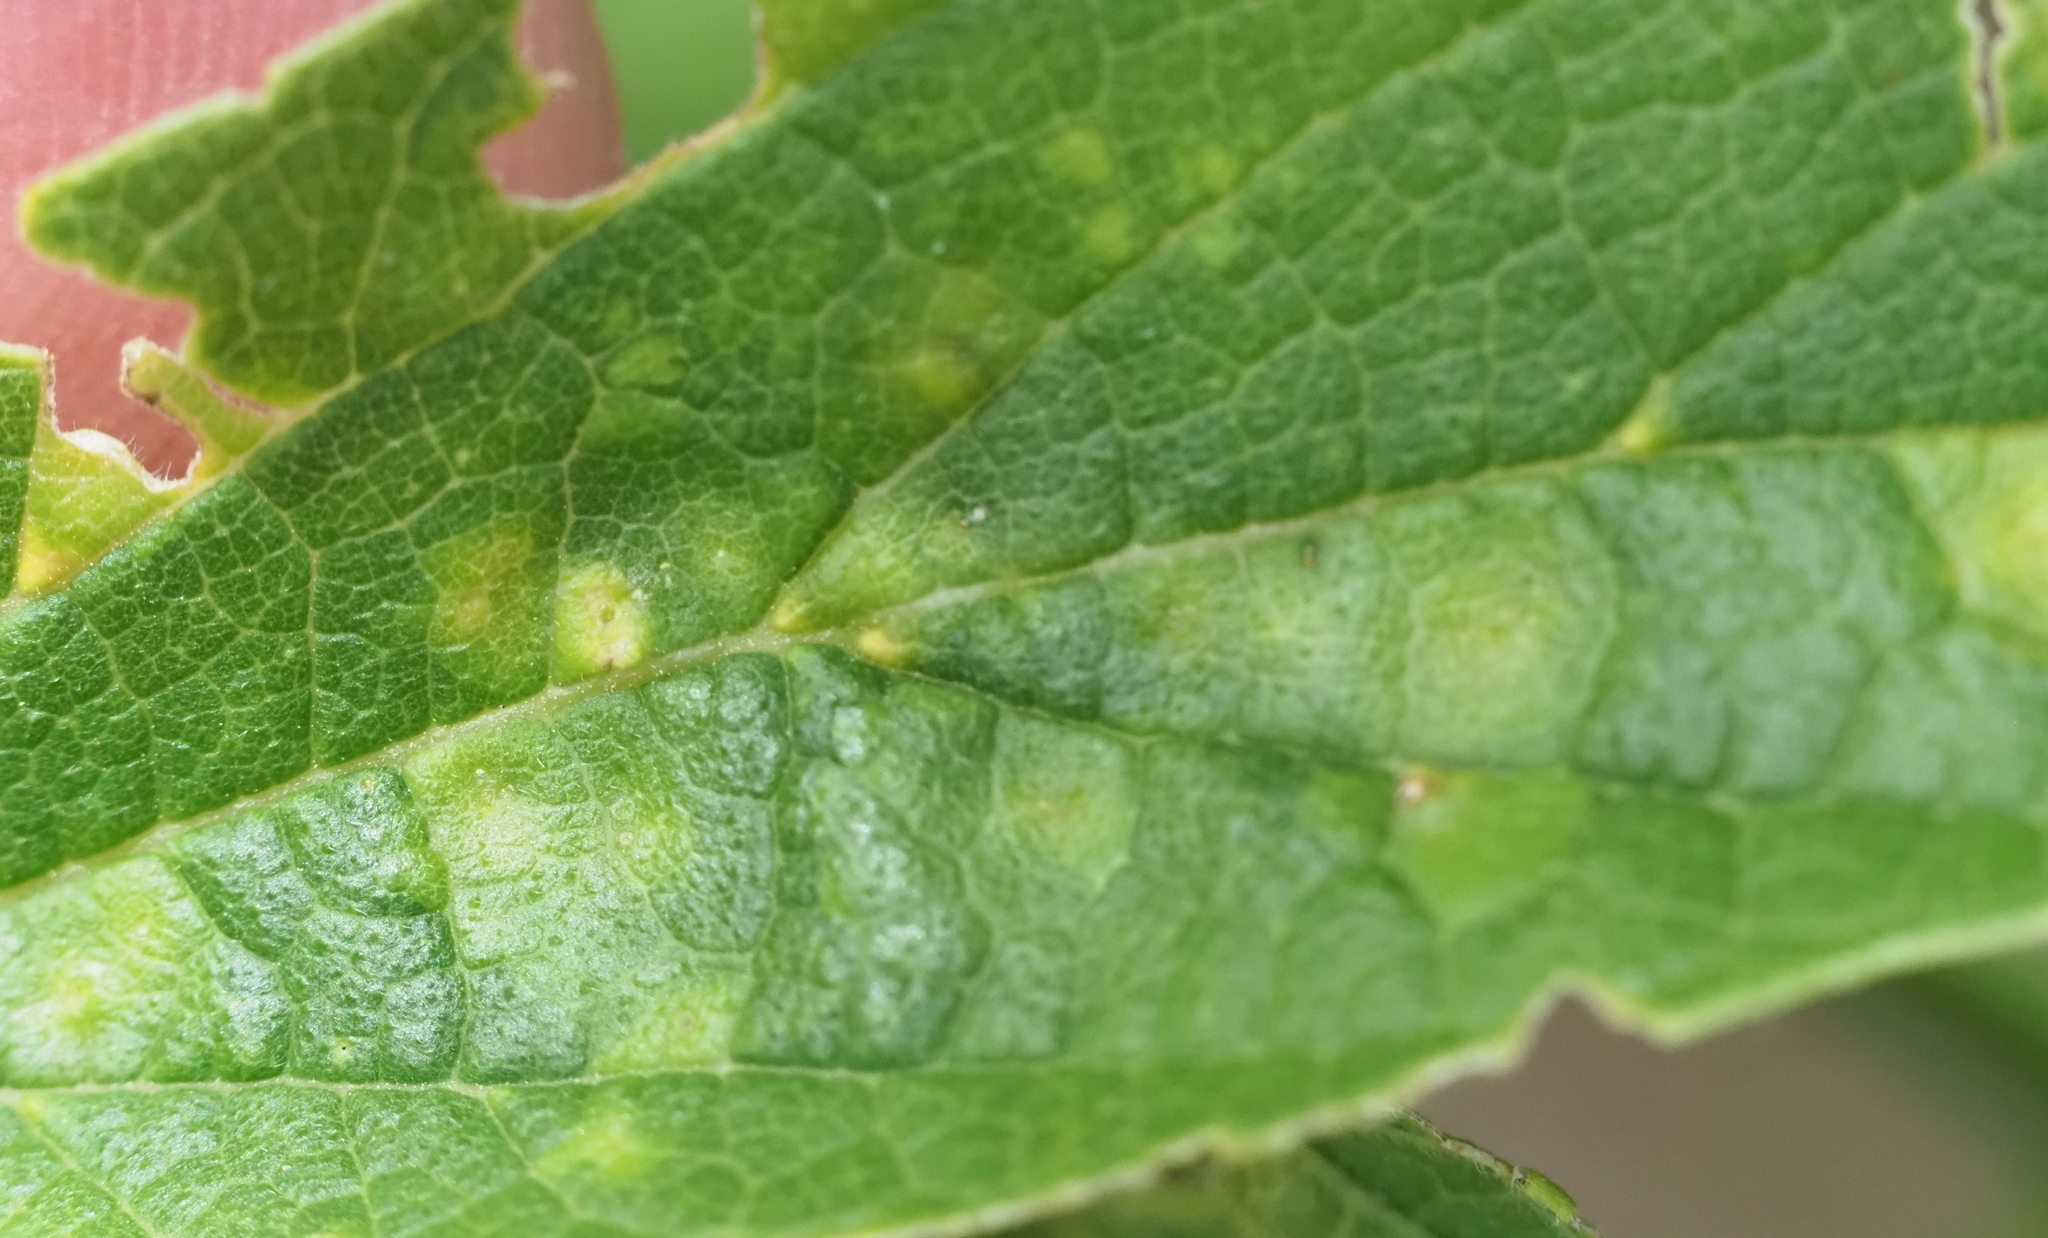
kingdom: Animalia
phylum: Arthropoda
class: Insecta
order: Hemiptera
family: Aphalaridae
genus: Pachypsylla
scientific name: Pachypsylla celtidisvesicula
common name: Hackberry blister gall psyllid
